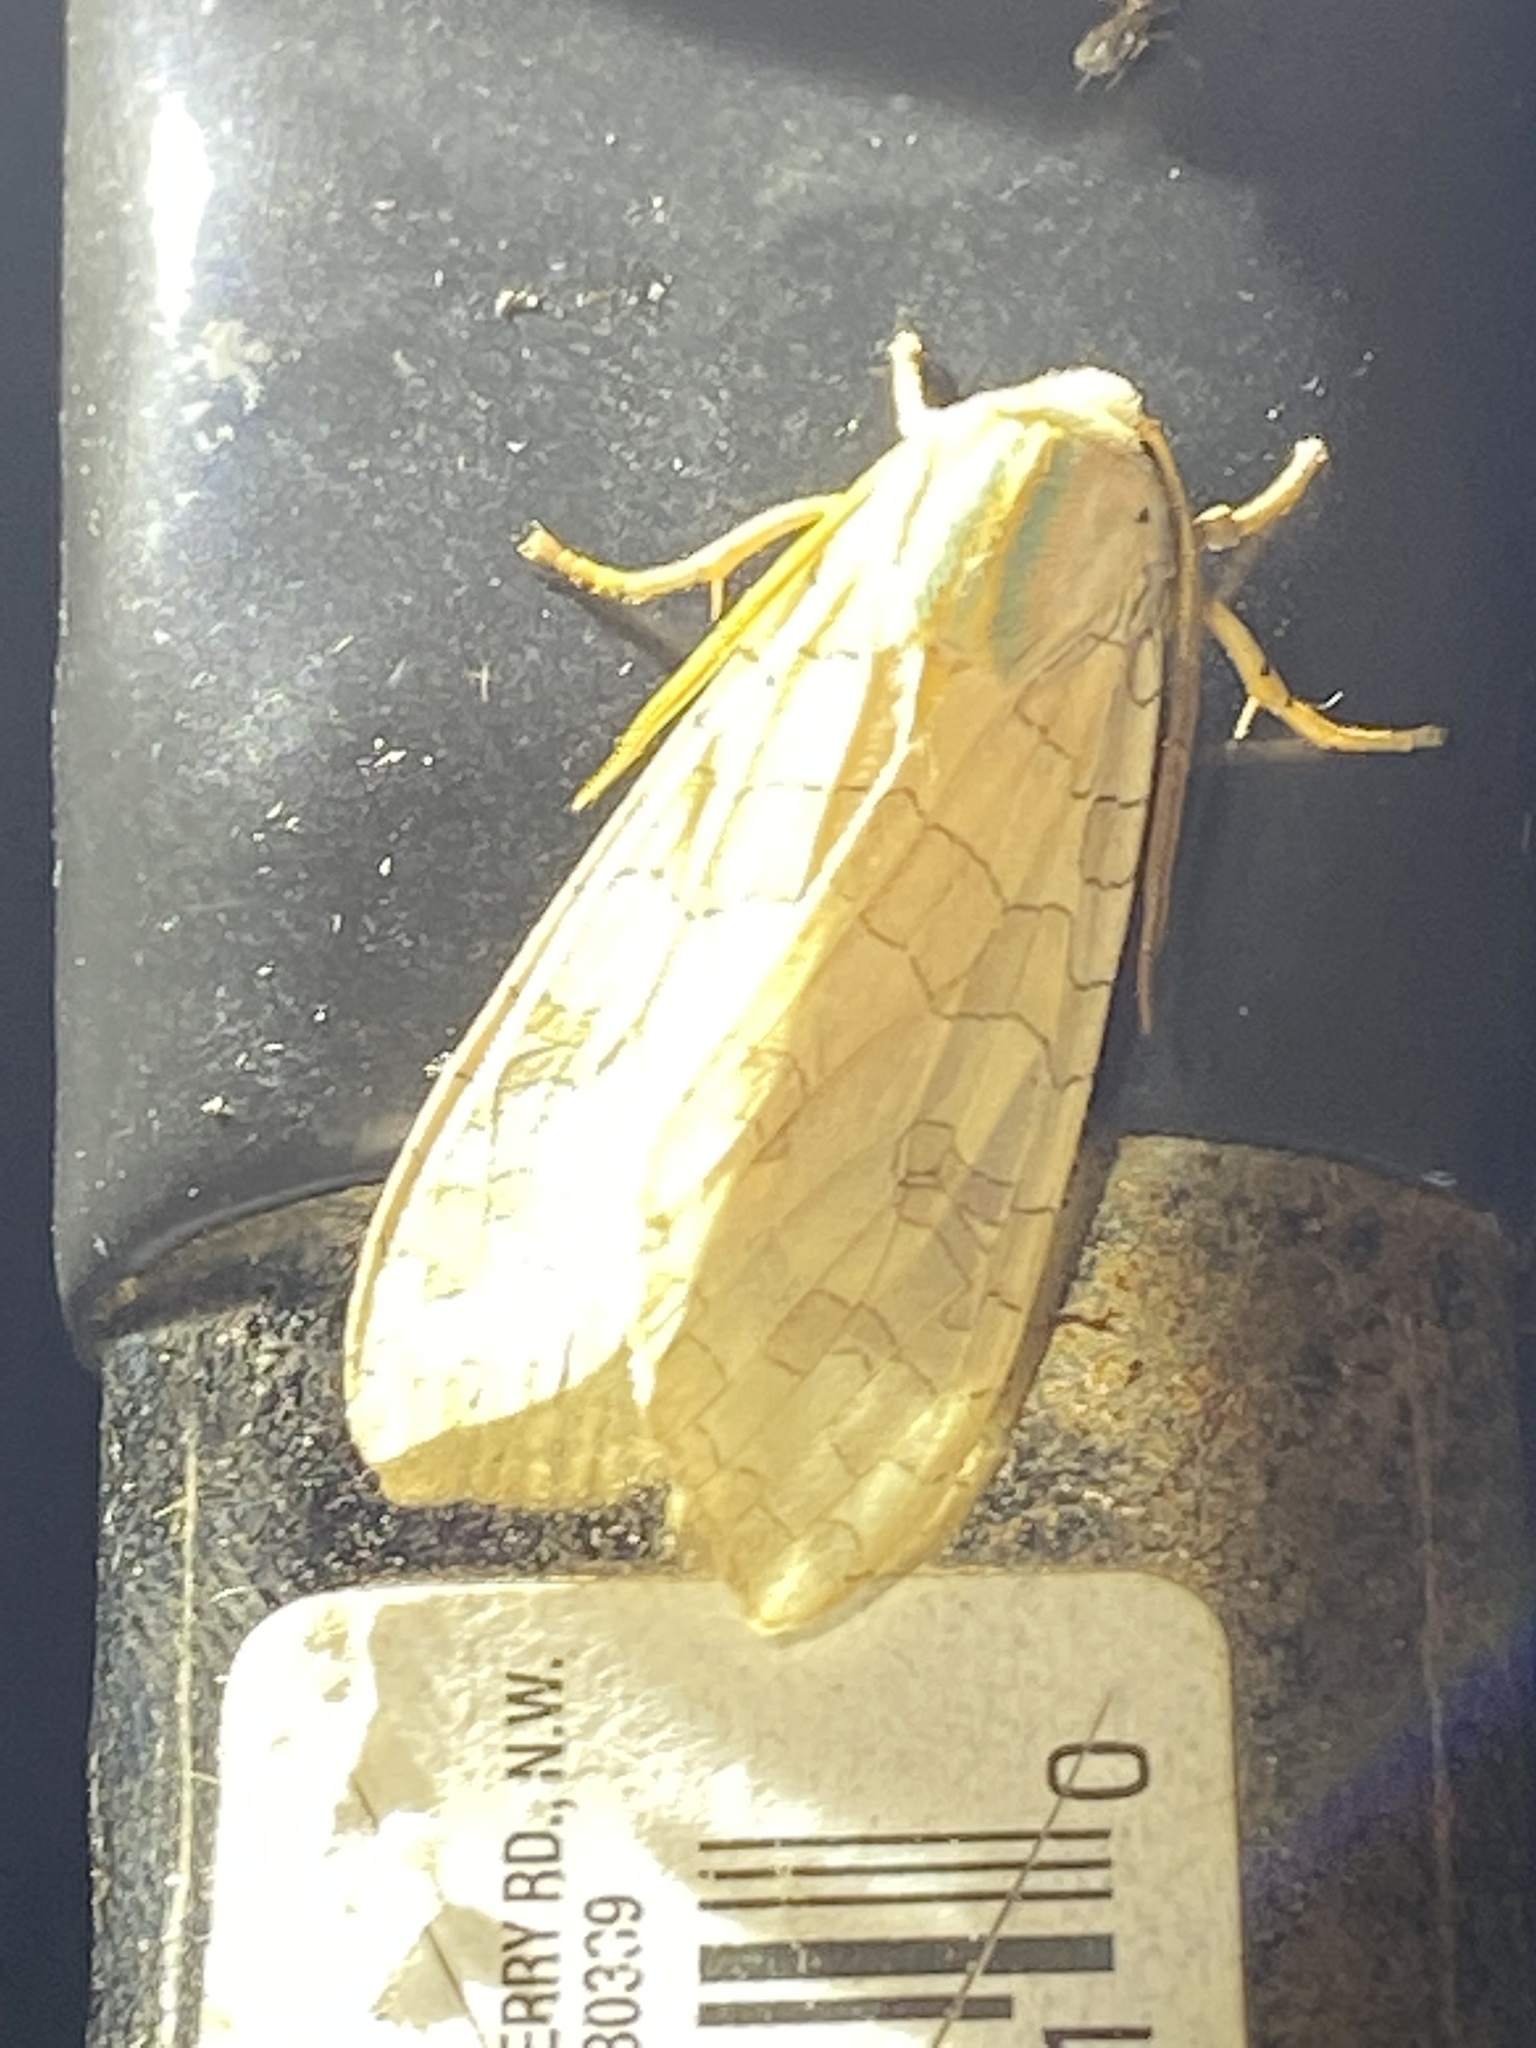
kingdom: Animalia
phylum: Arthropoda
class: Insecta
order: Lepidoptera
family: Erebidae
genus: Halysidota
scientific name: Halysidota
